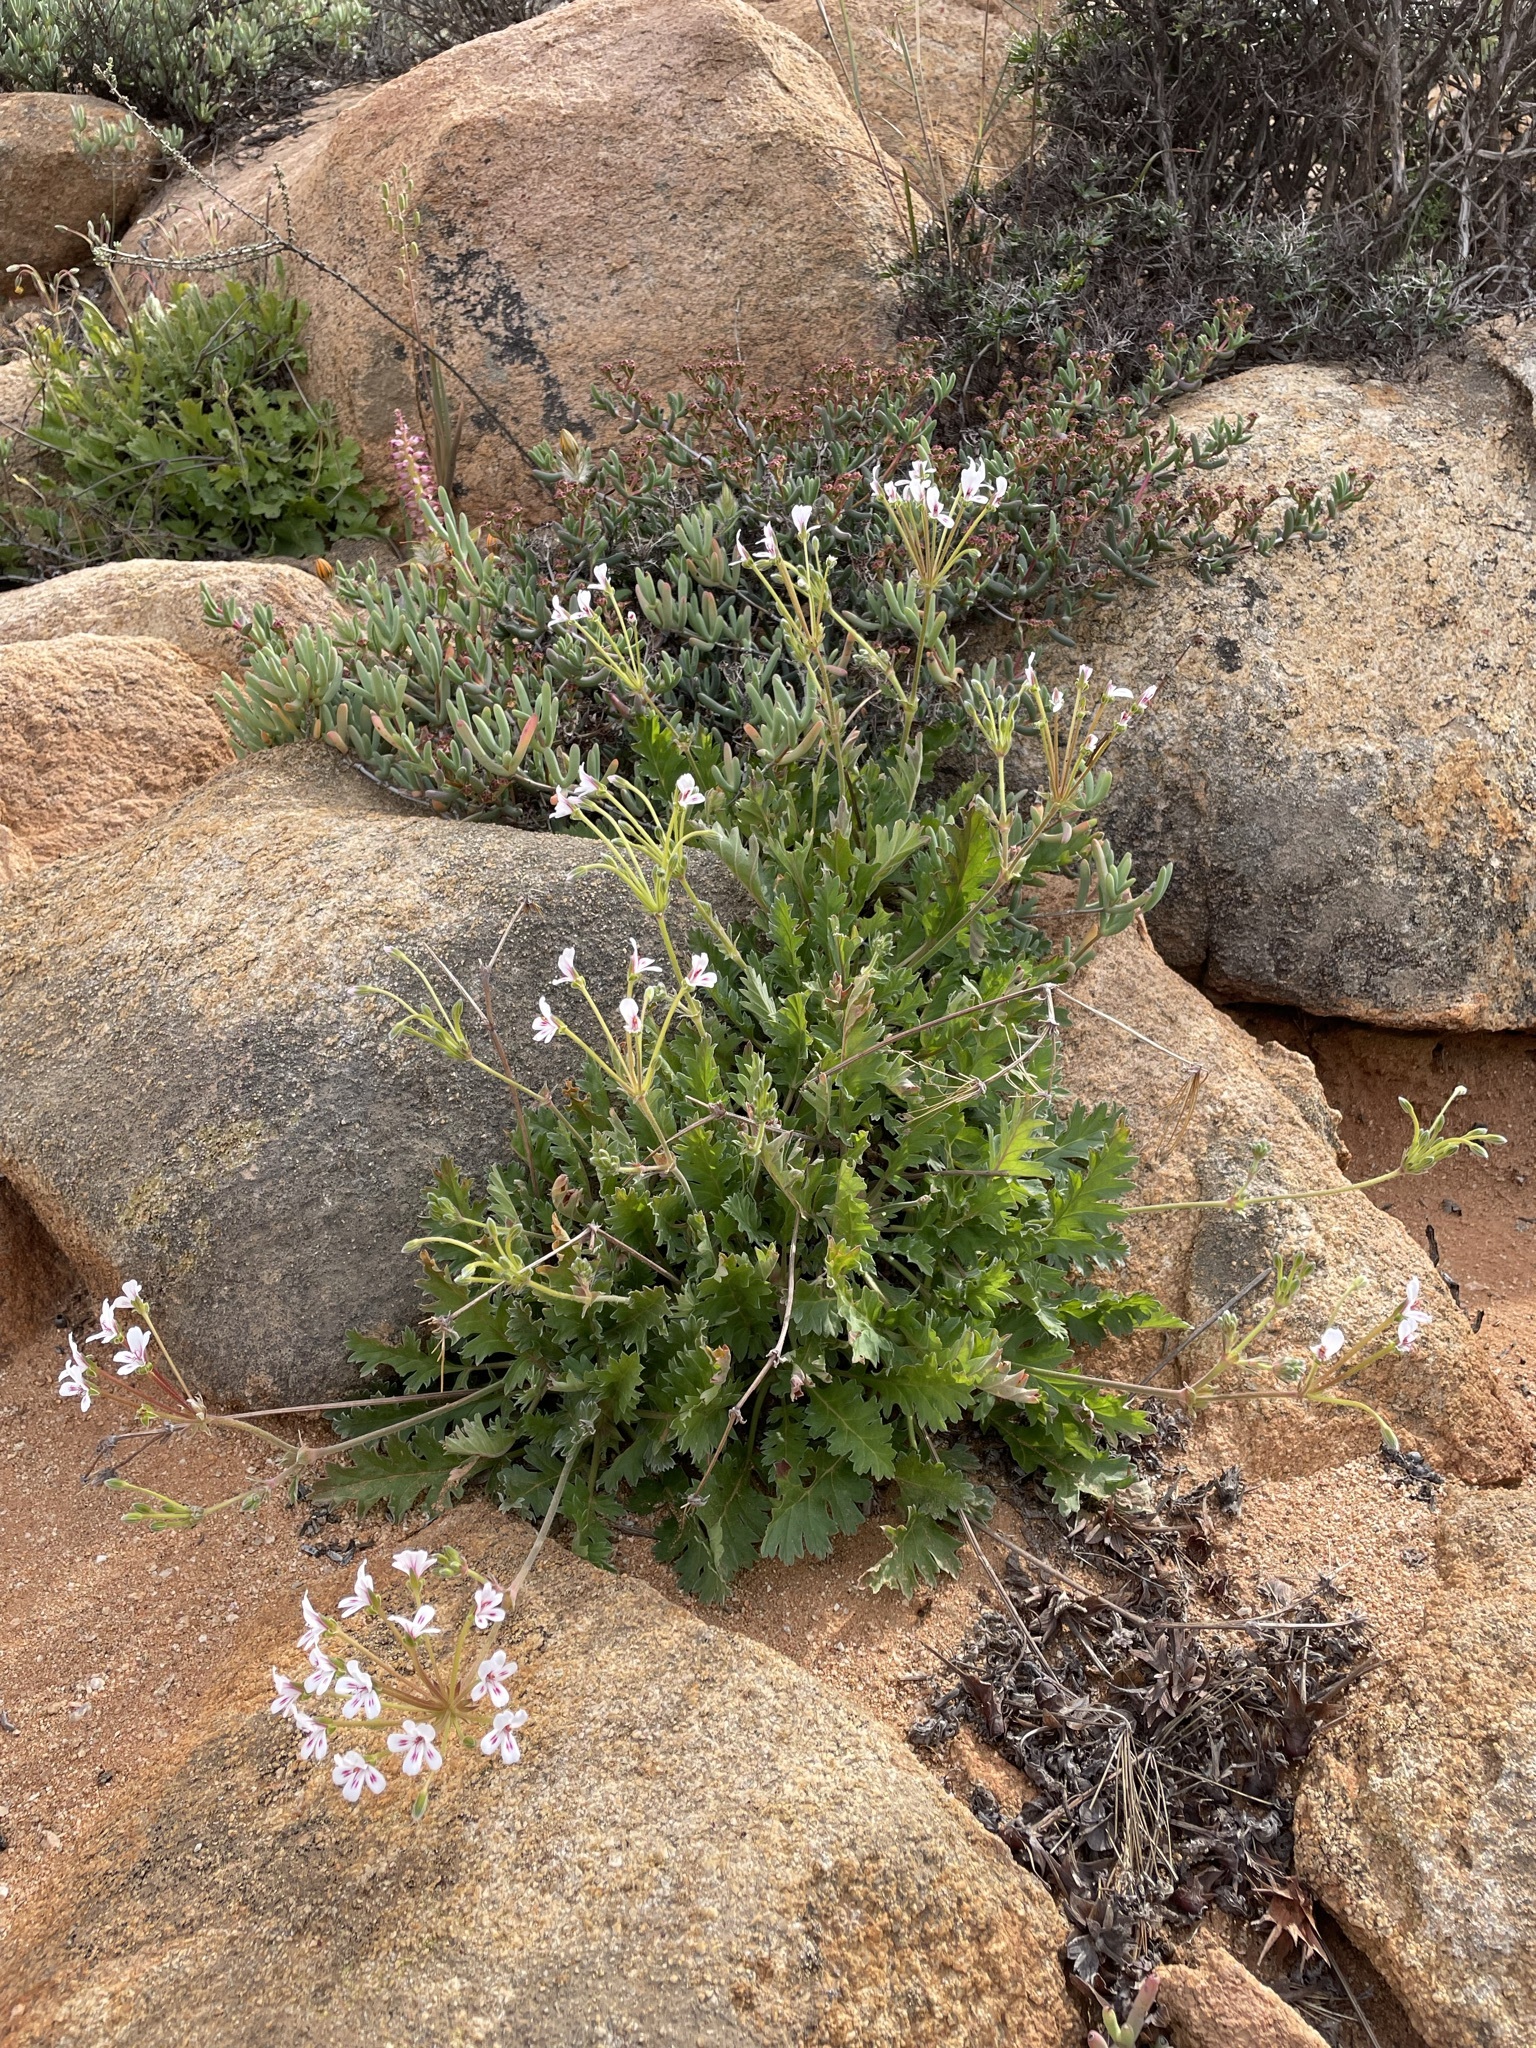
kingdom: Plantae
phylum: Tracheophyta
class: Magnoliopsida
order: Geraniales
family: Geraniaceae
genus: Pelargonium
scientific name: Pelargonium pulchellum
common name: Nonesuch pelargonium
